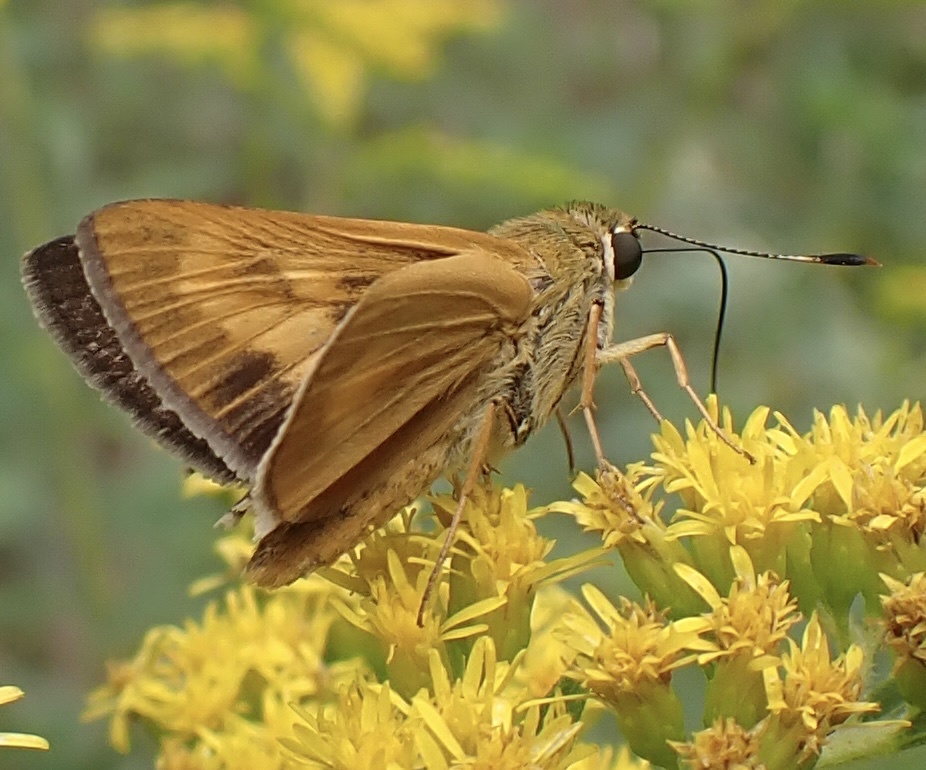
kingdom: Animalia
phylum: Arthropoda
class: Insecta
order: Lepidoptera
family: Hesperiidae
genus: Problema
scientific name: Problema byssus
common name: Byssus skipper
